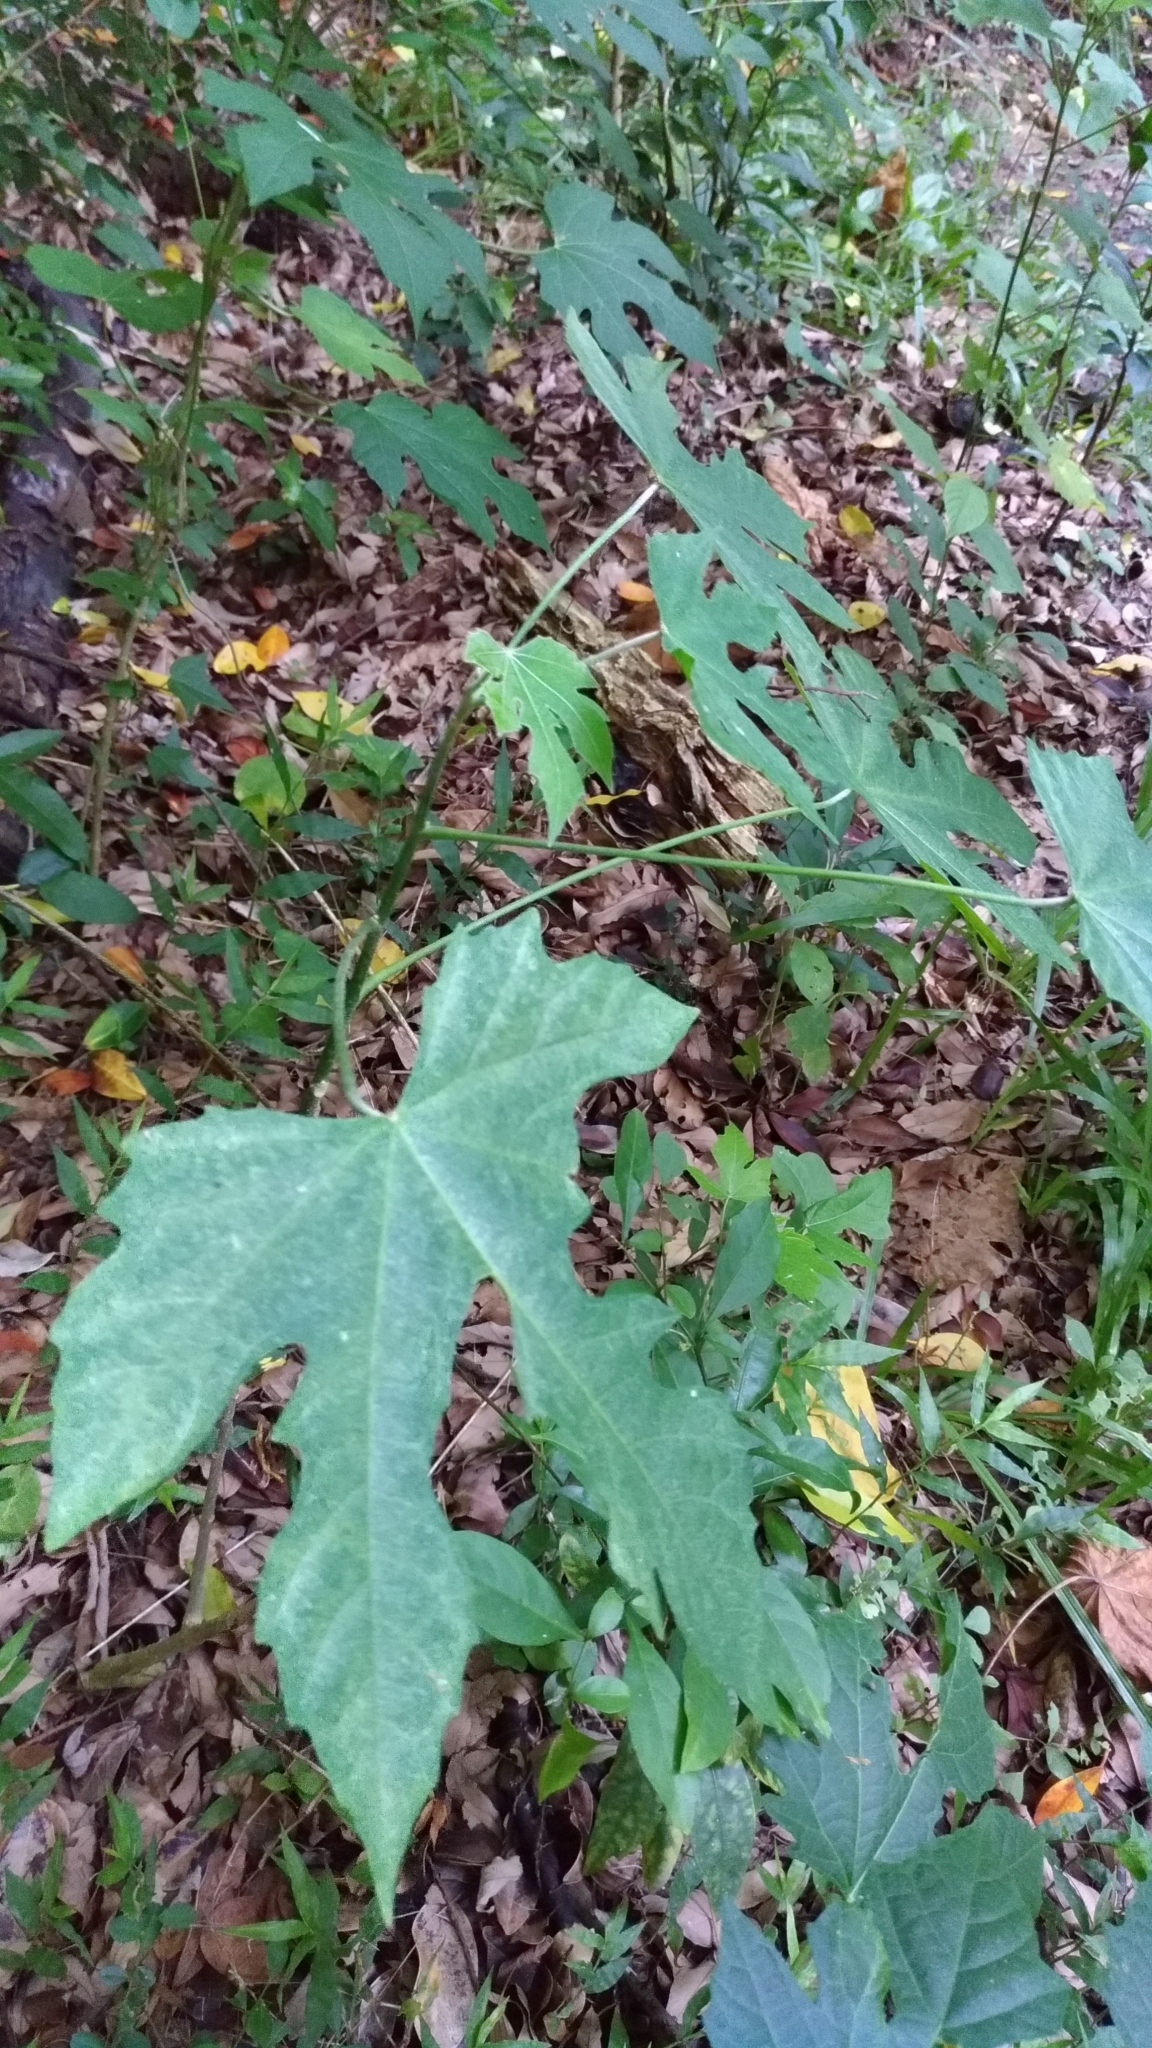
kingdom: Plantae
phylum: Tracheophyta
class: Magnoliopsida
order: Malpighiales
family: Euphorbiaceae
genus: Melanolepis
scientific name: Melanolepis multiglandulosa
